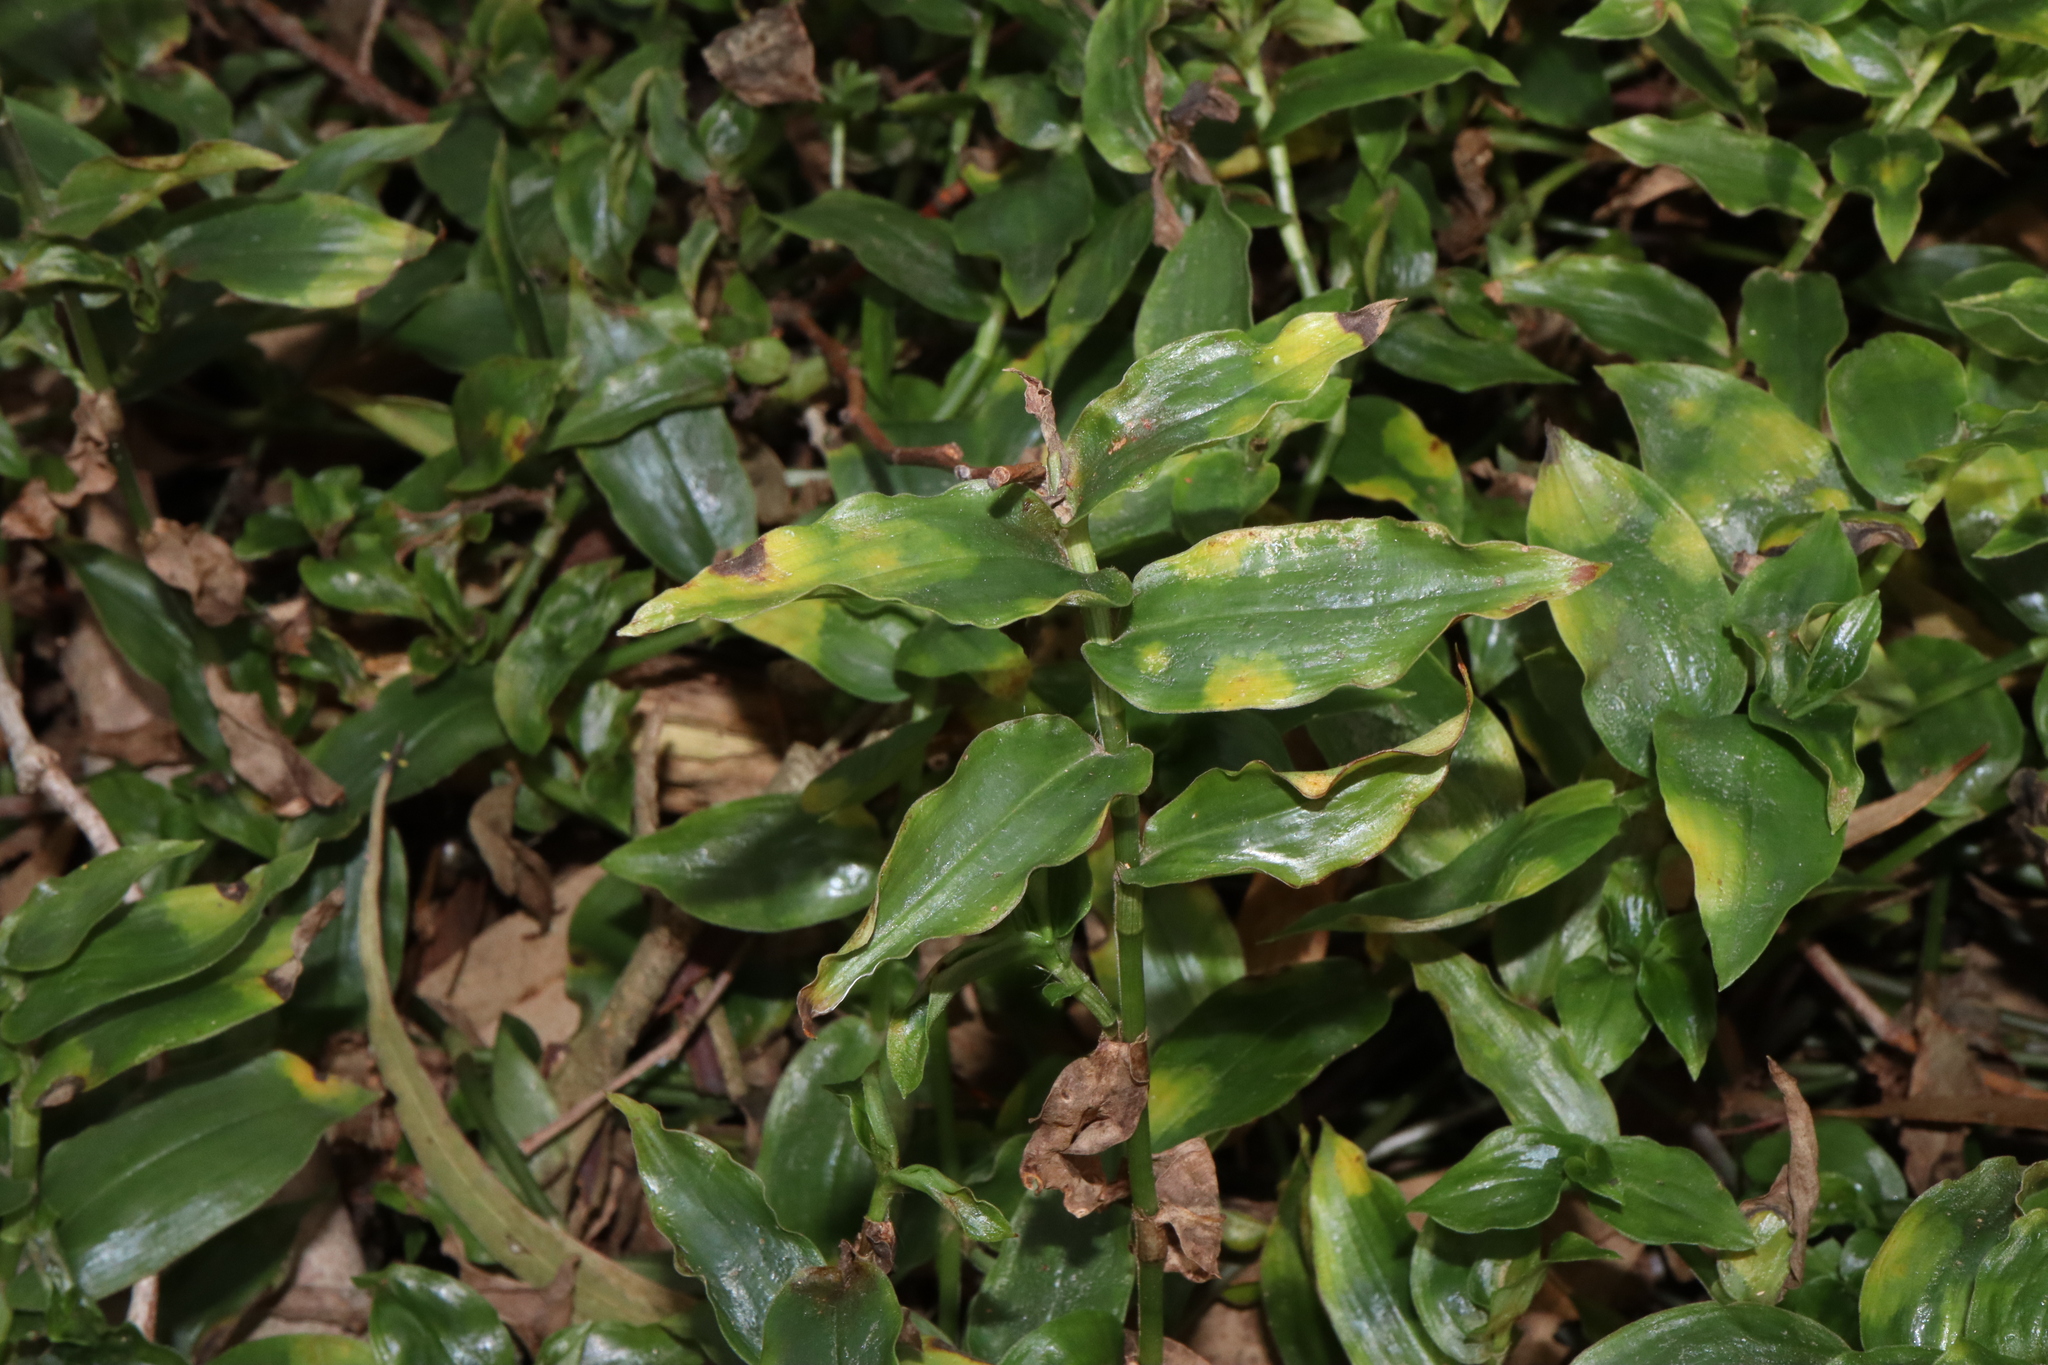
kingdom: Fungi
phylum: Basidiomycota
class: Exobasidiomycetes
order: Exobasidiales
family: Brachybasidiaceae
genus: Kordyana
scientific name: Kordyana brasiliensis
